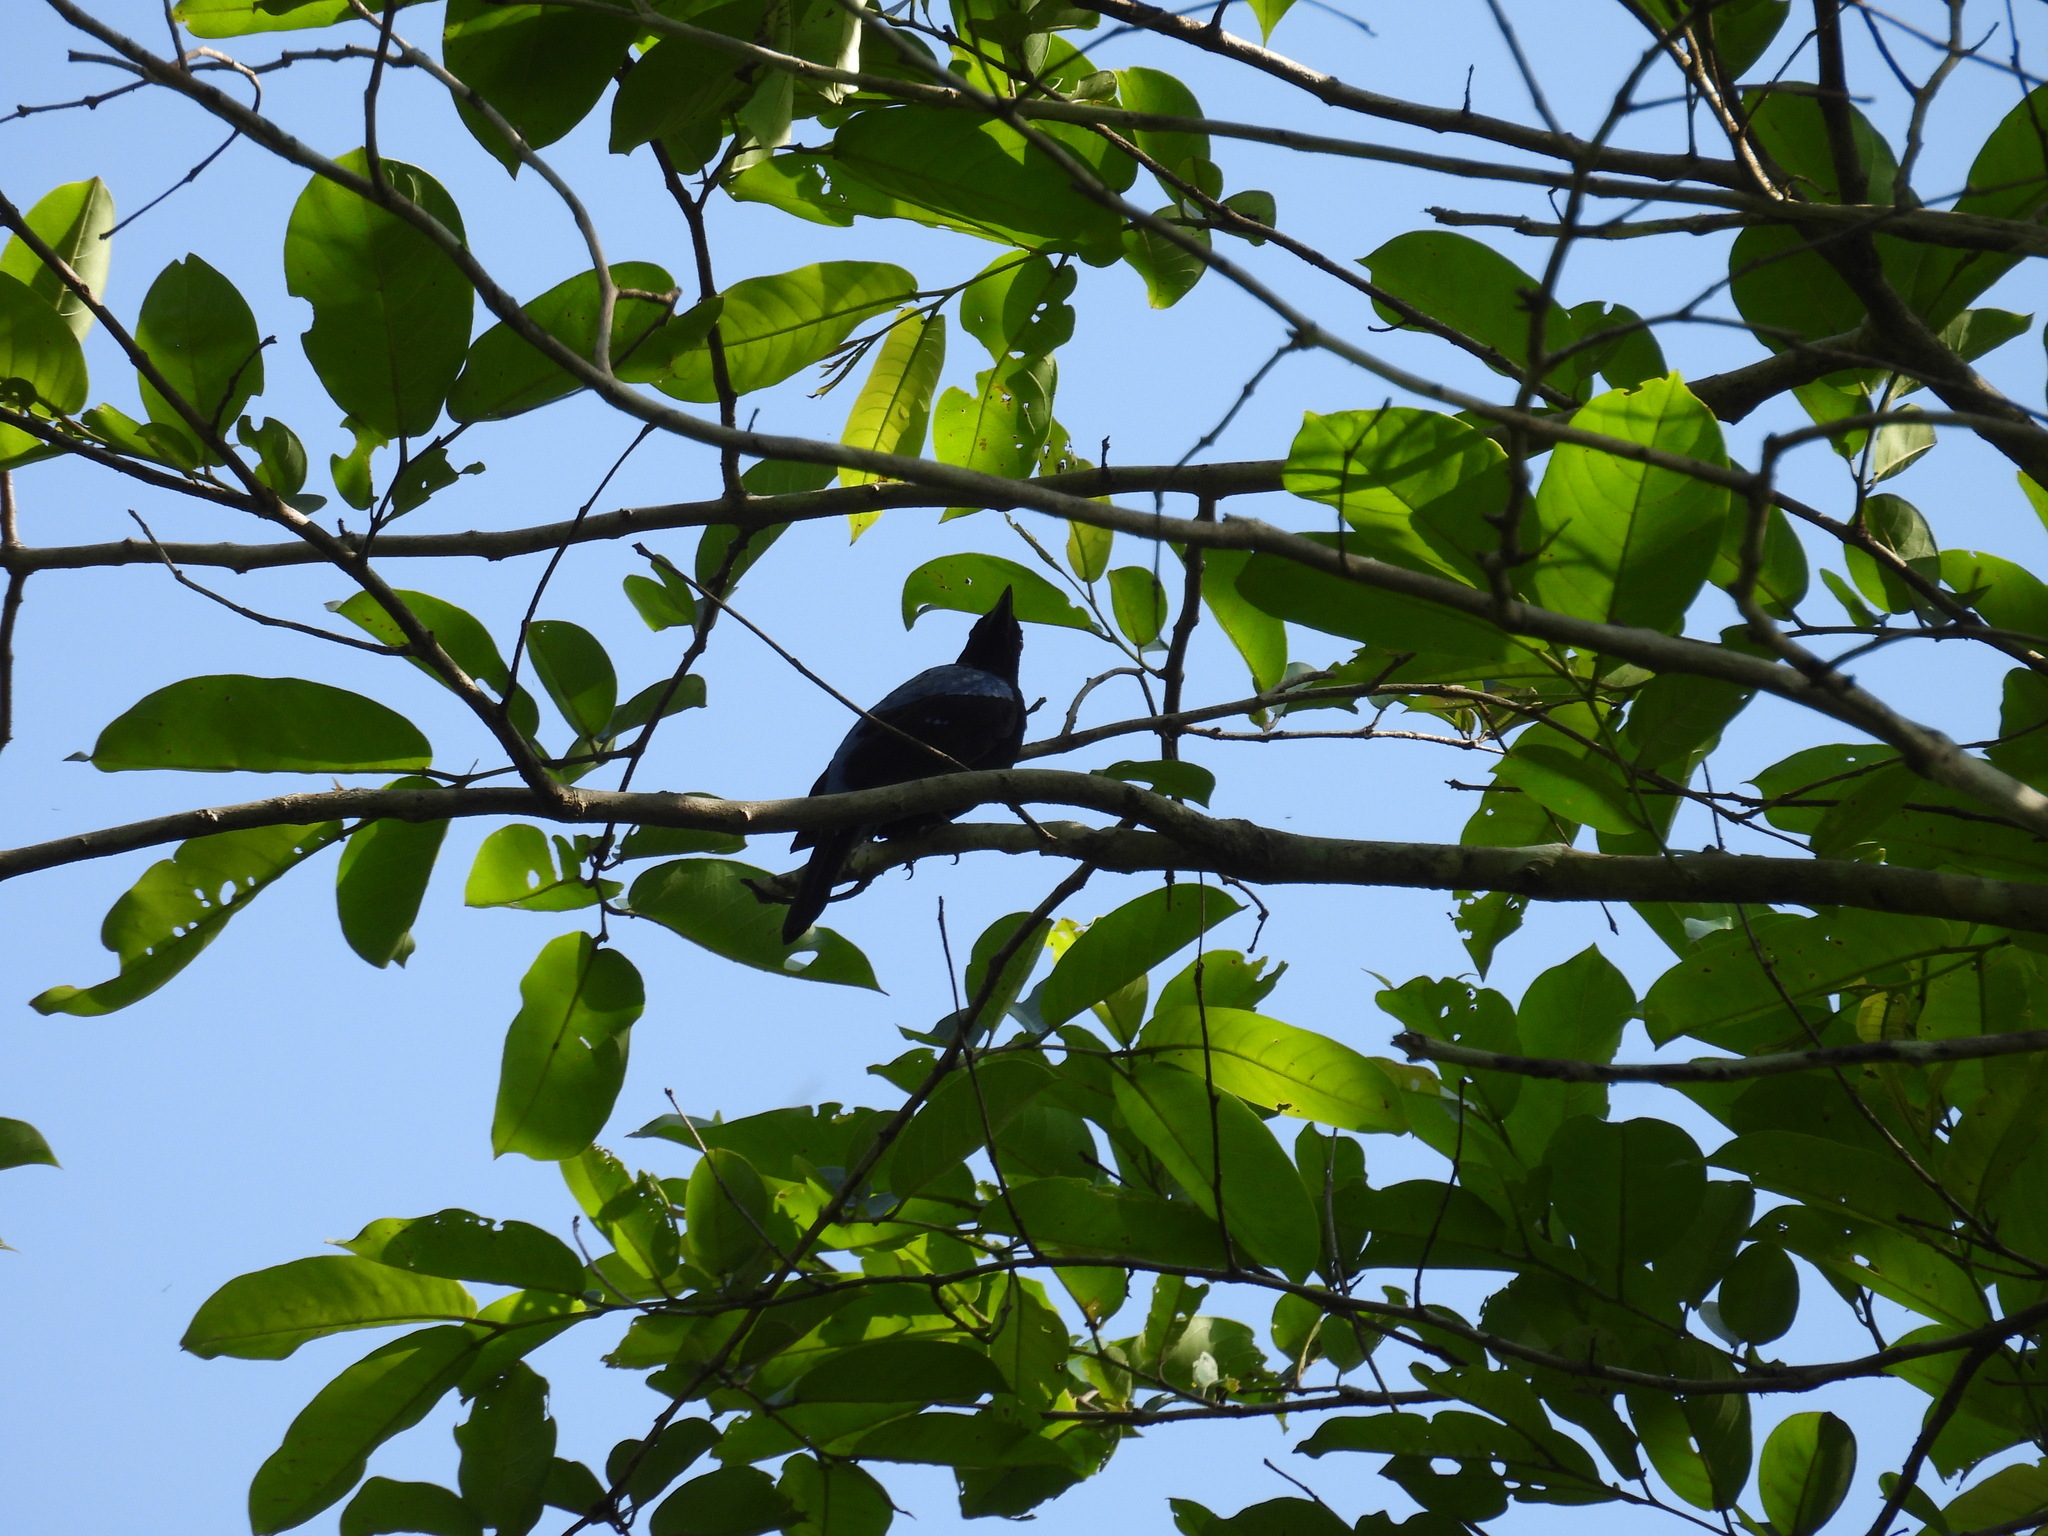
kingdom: Animalia
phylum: Chordata
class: Aves
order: Passeriformes
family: Irenidae
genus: Irena
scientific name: Irena puella
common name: Asian fairy-bluebird
